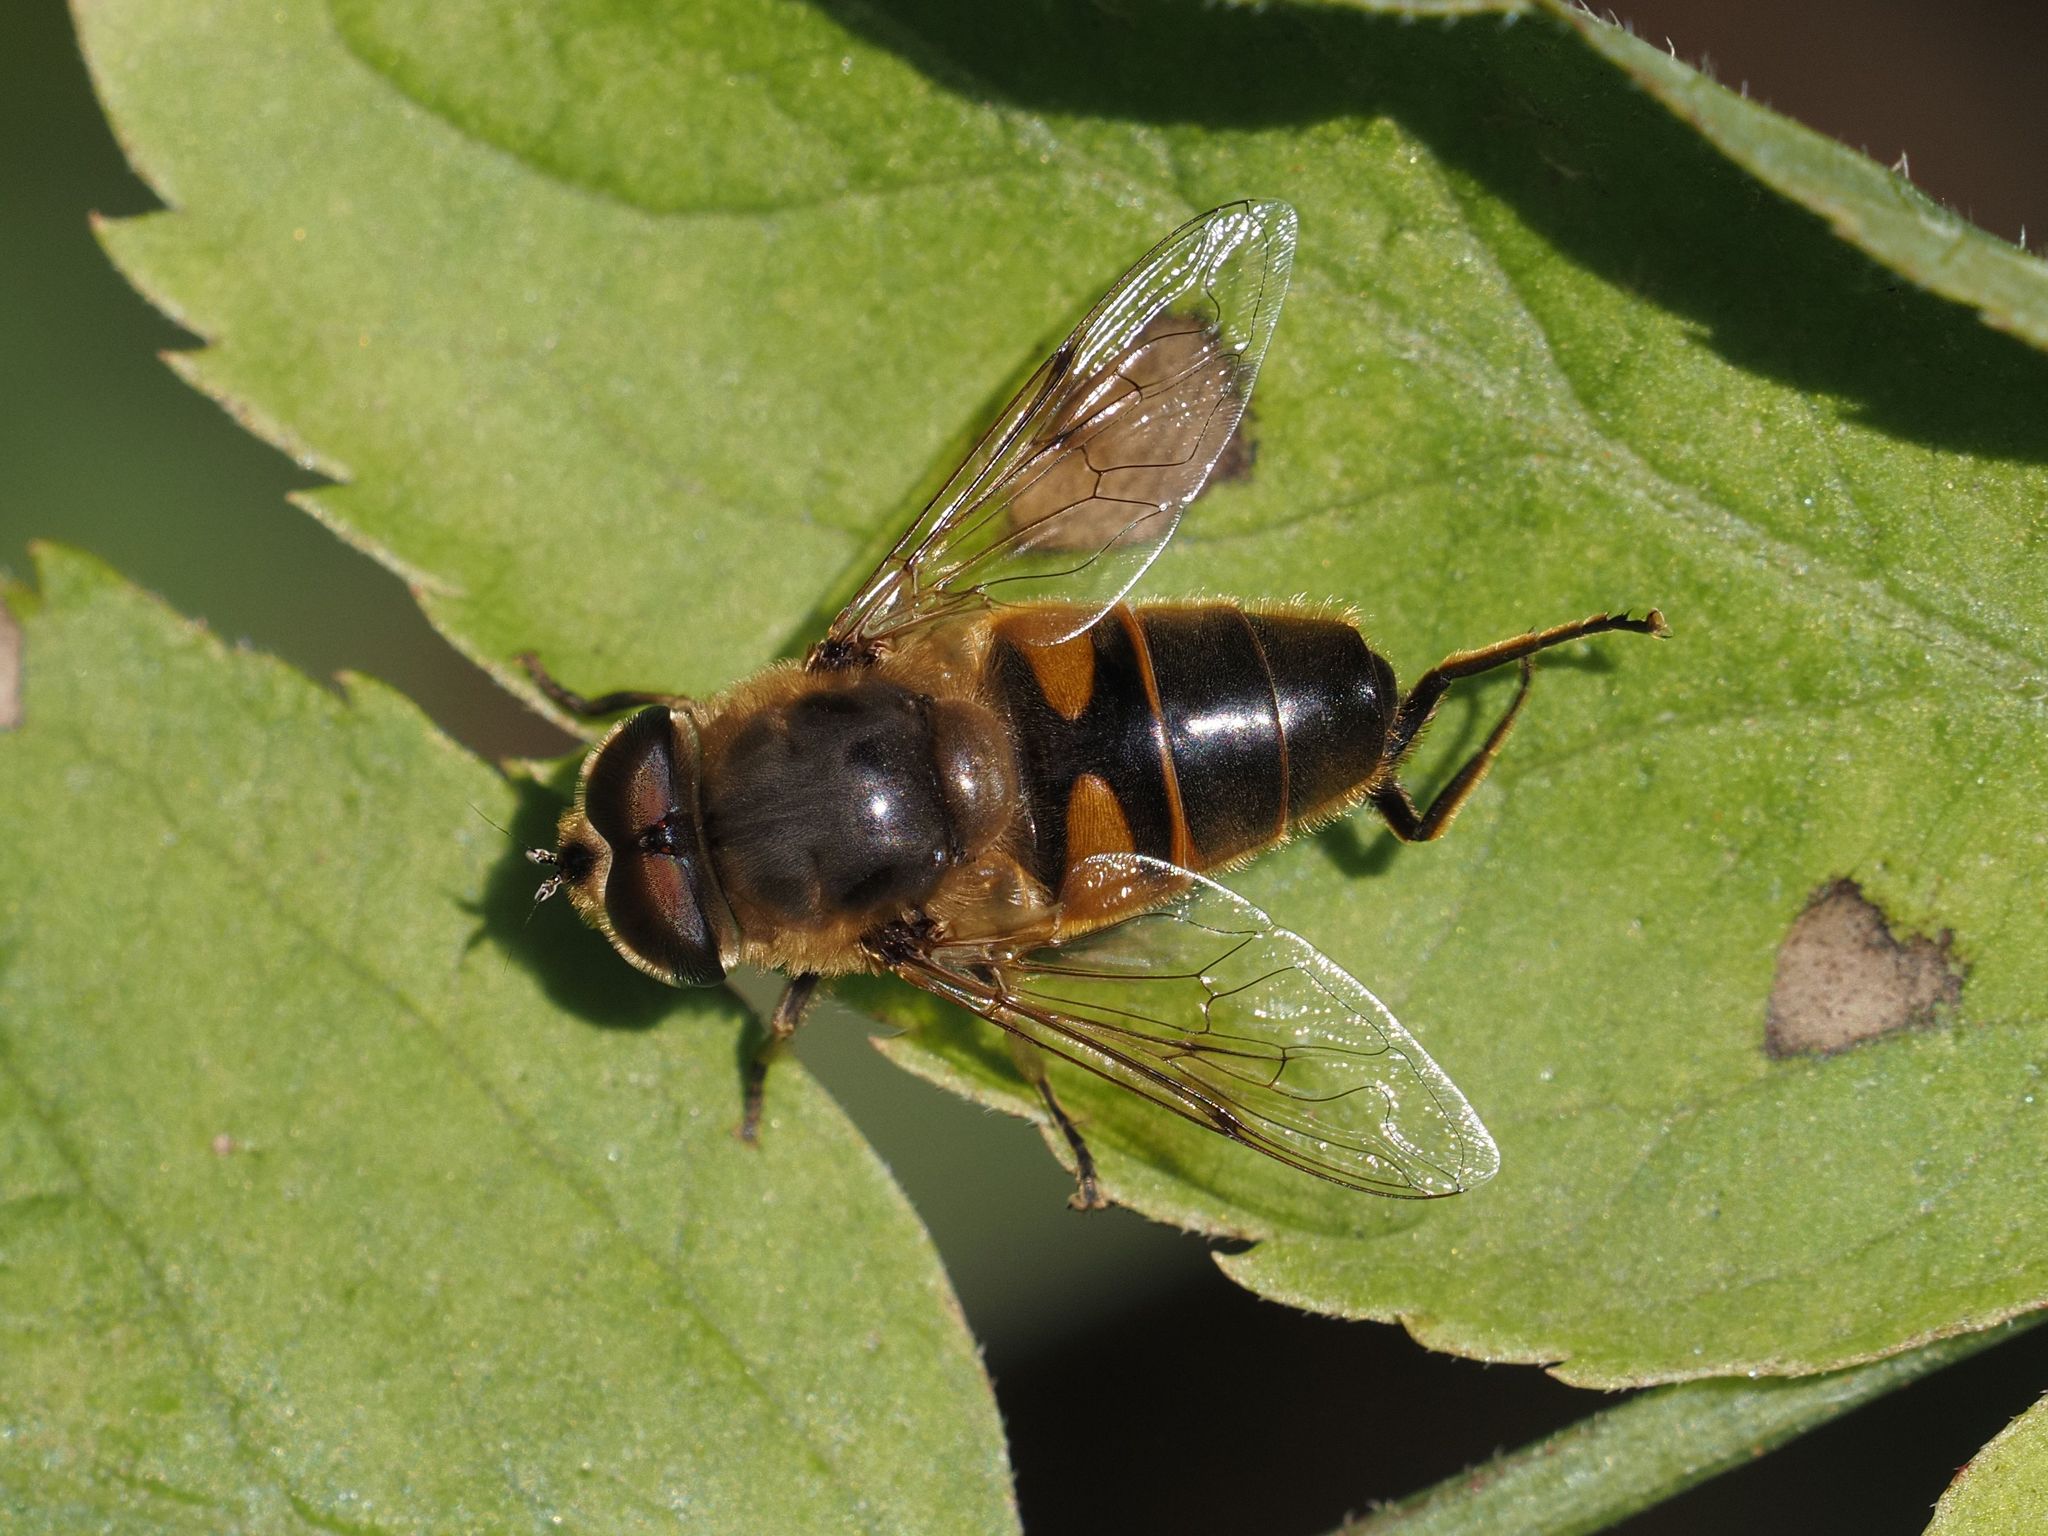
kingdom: Animalia
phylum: Arthropoda
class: Insecta
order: Diptera
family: Syrphidae
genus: Eristalis
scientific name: Eristalis tenax
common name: Drone fly
